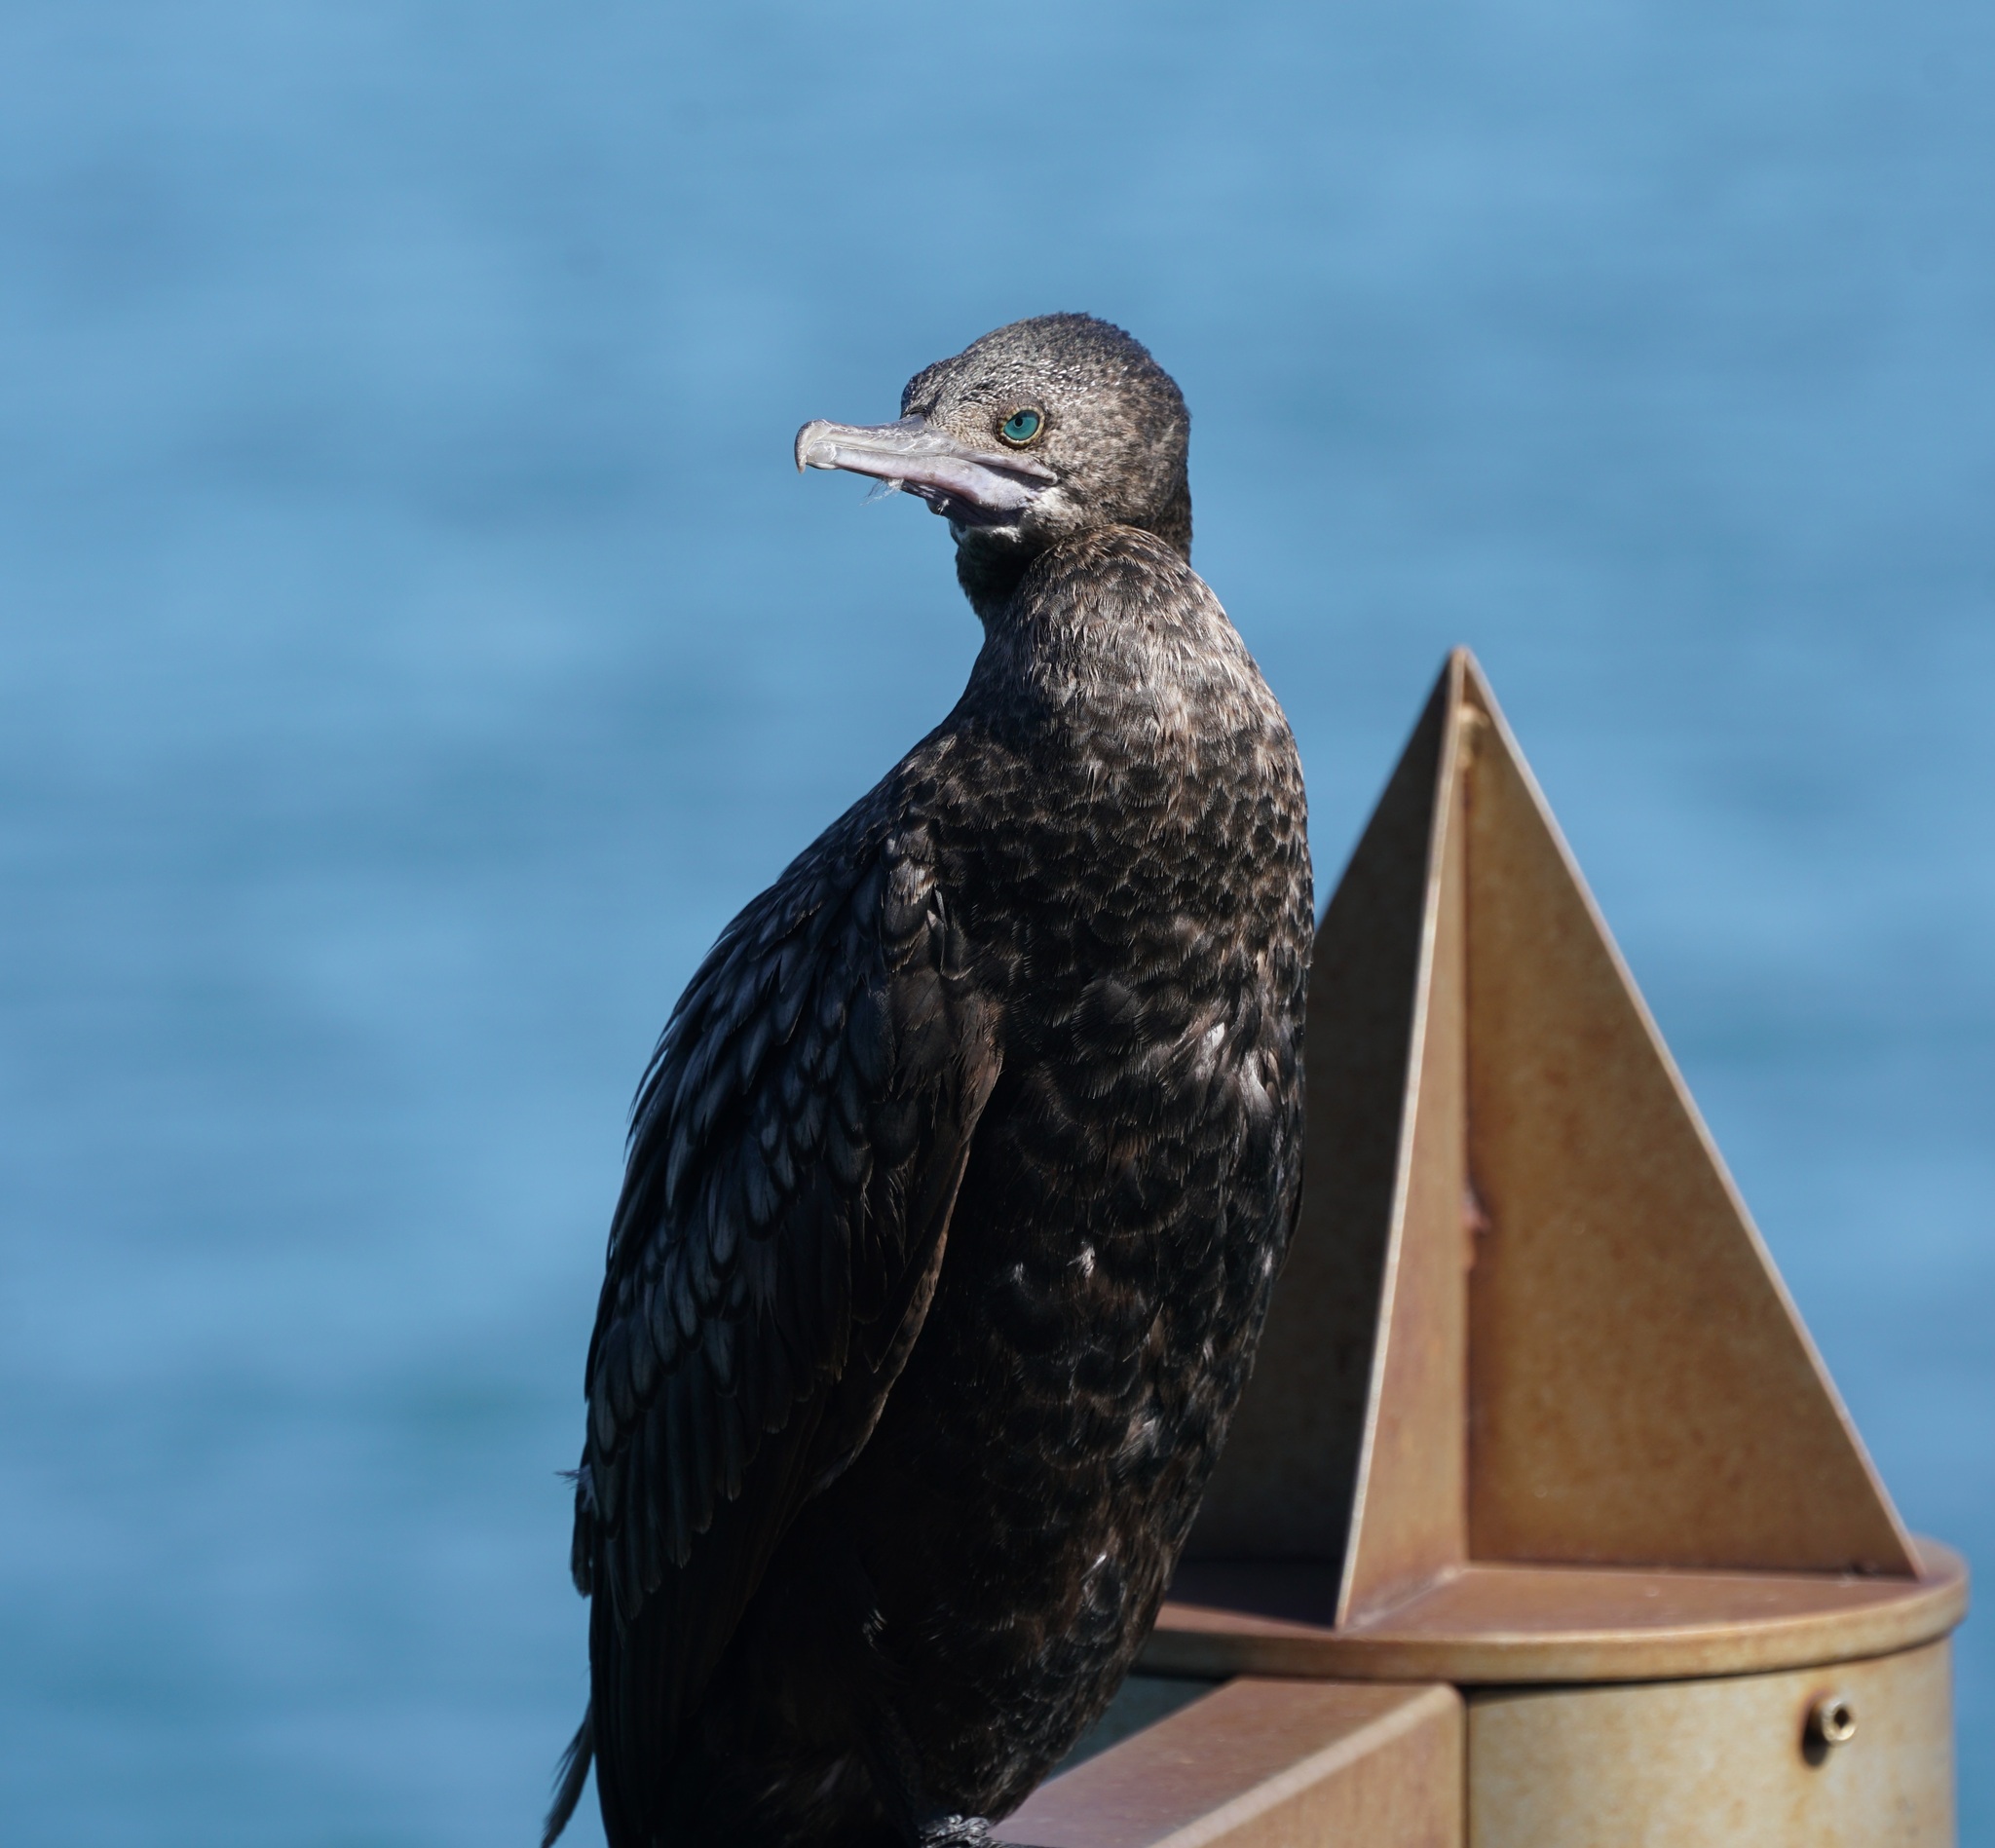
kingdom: Animalia
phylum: Chordata
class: Aves
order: Suliformes
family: Phalacrocoracidae
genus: Phalacrocorax
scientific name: Phalacrocorax sulcirostris
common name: Little black cormorant
